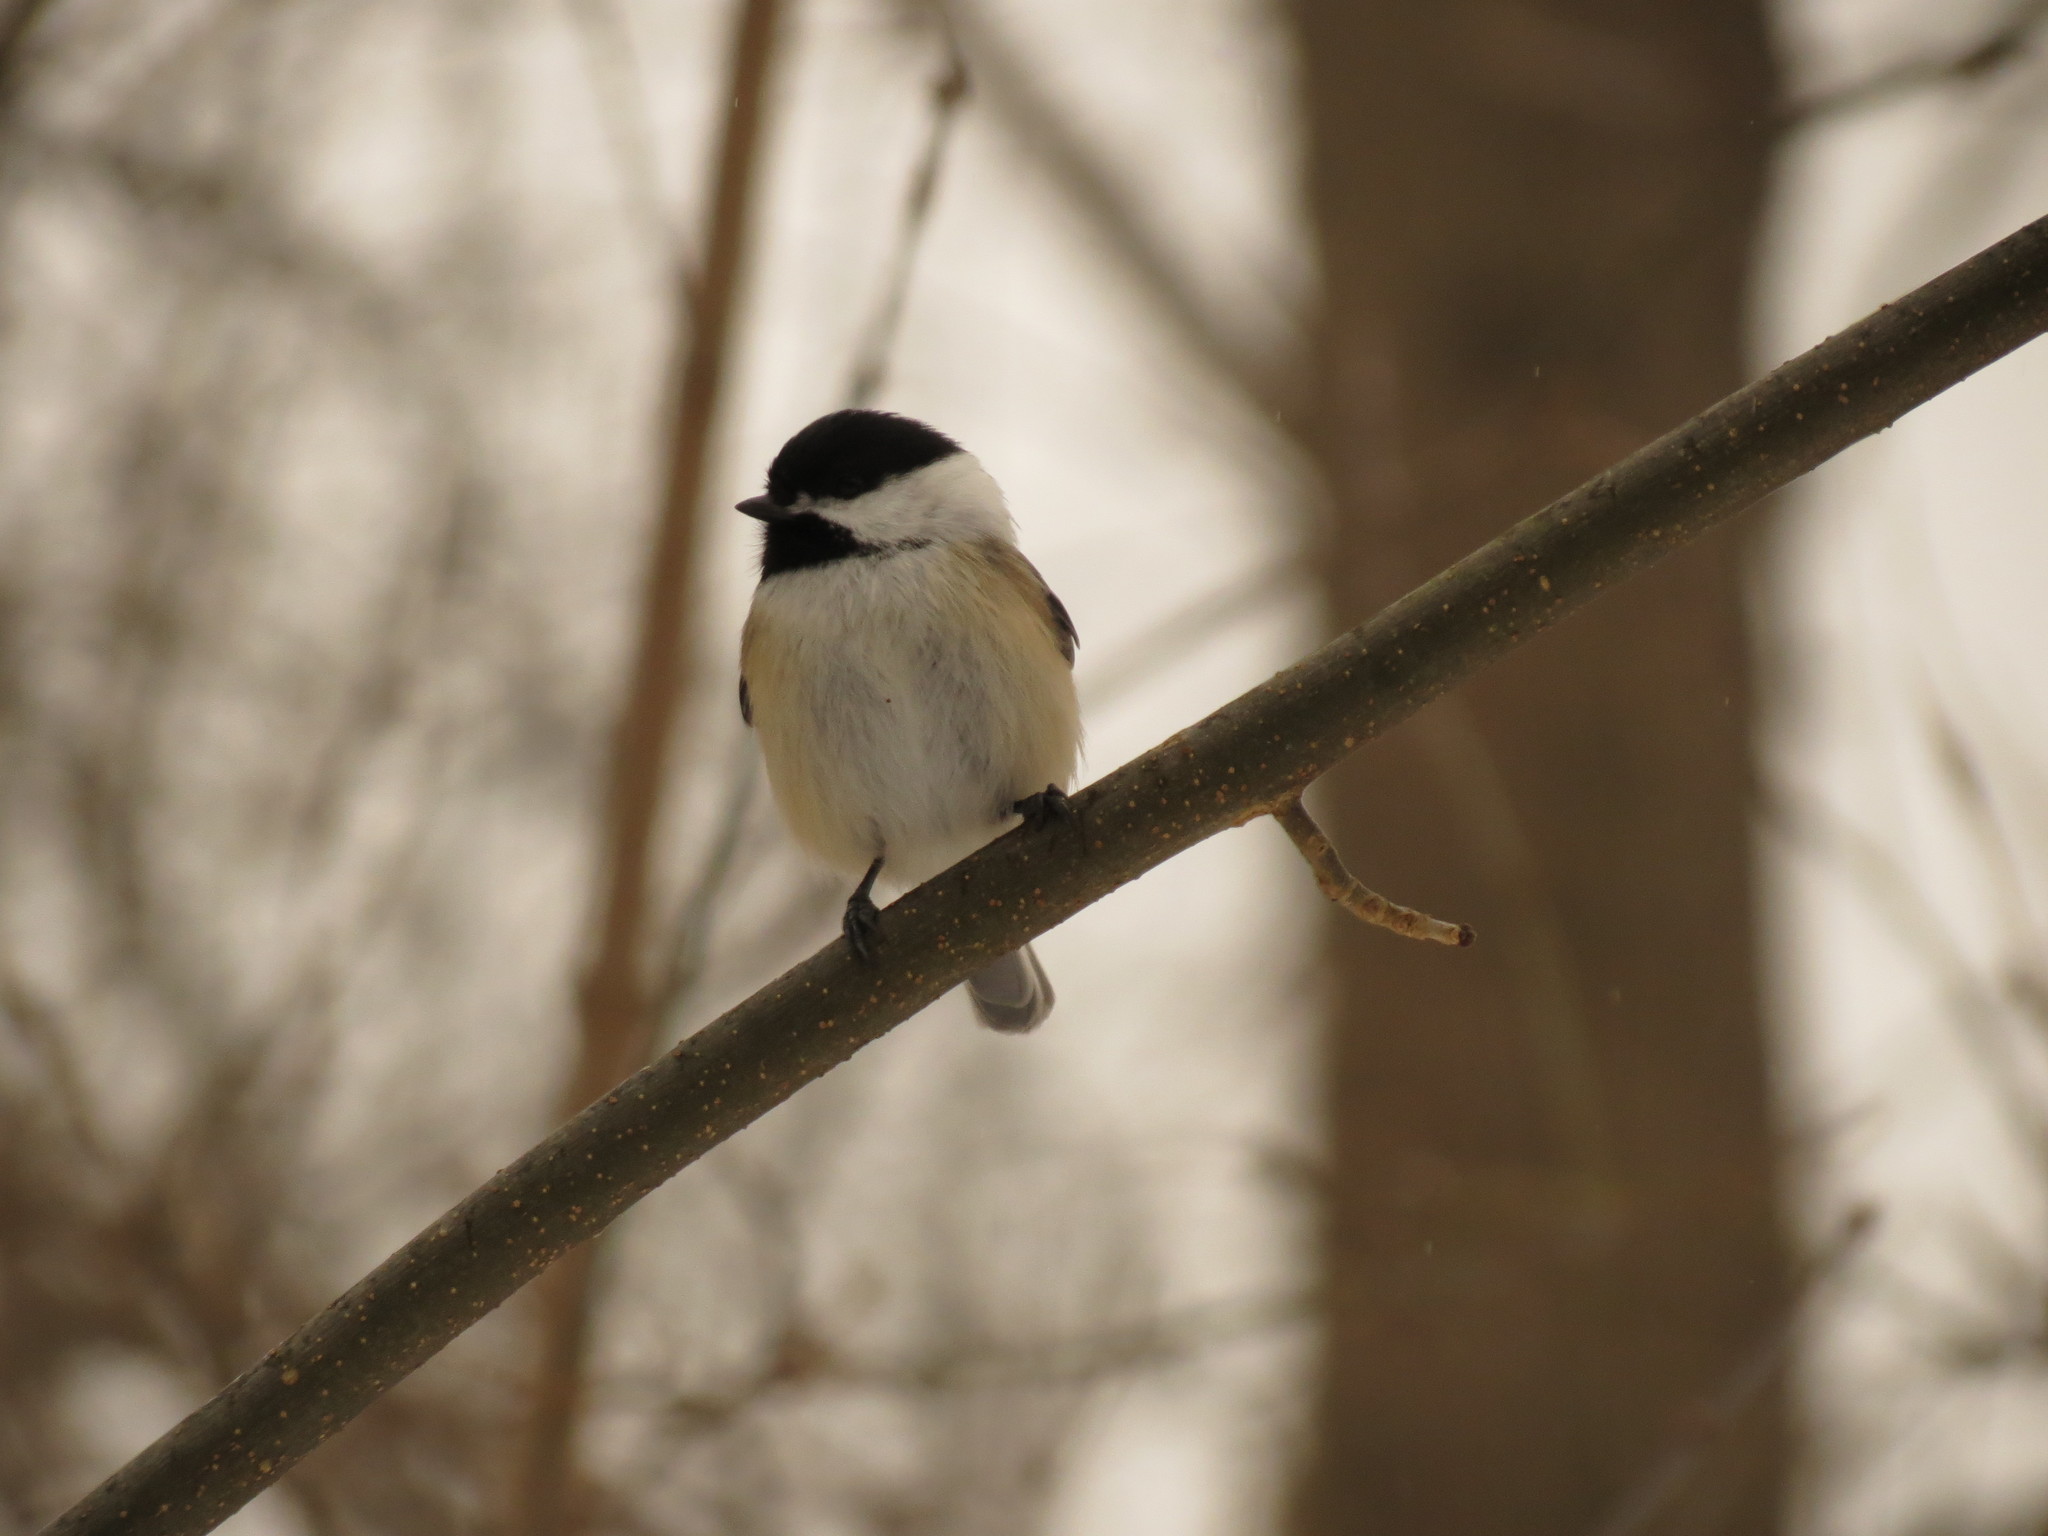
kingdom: Animalia
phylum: Chordata
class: Aves
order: Passeriformes
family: Paridae
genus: Poecile
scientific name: Poecile atricapillus
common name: Black-capped chickadee
